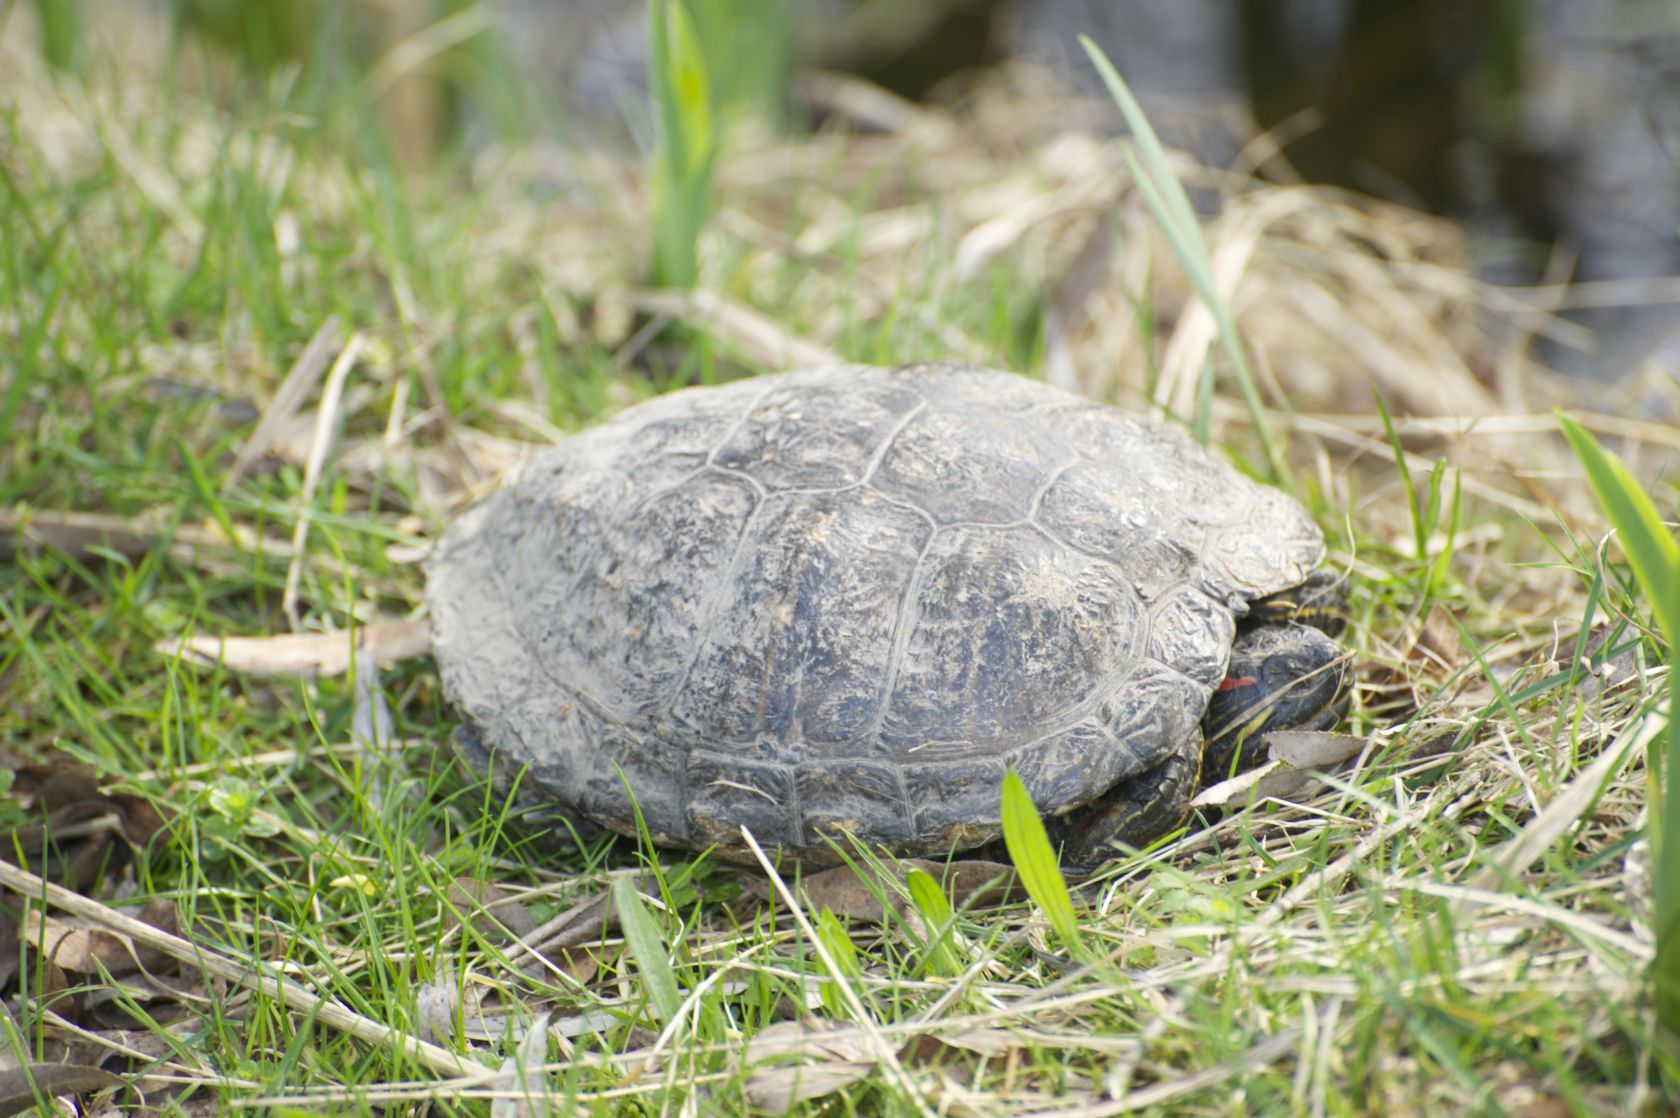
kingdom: Animalia
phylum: Chordata
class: Testudines
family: Emydidae
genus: Trachemys
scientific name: Trachemys scripta
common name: Slider
